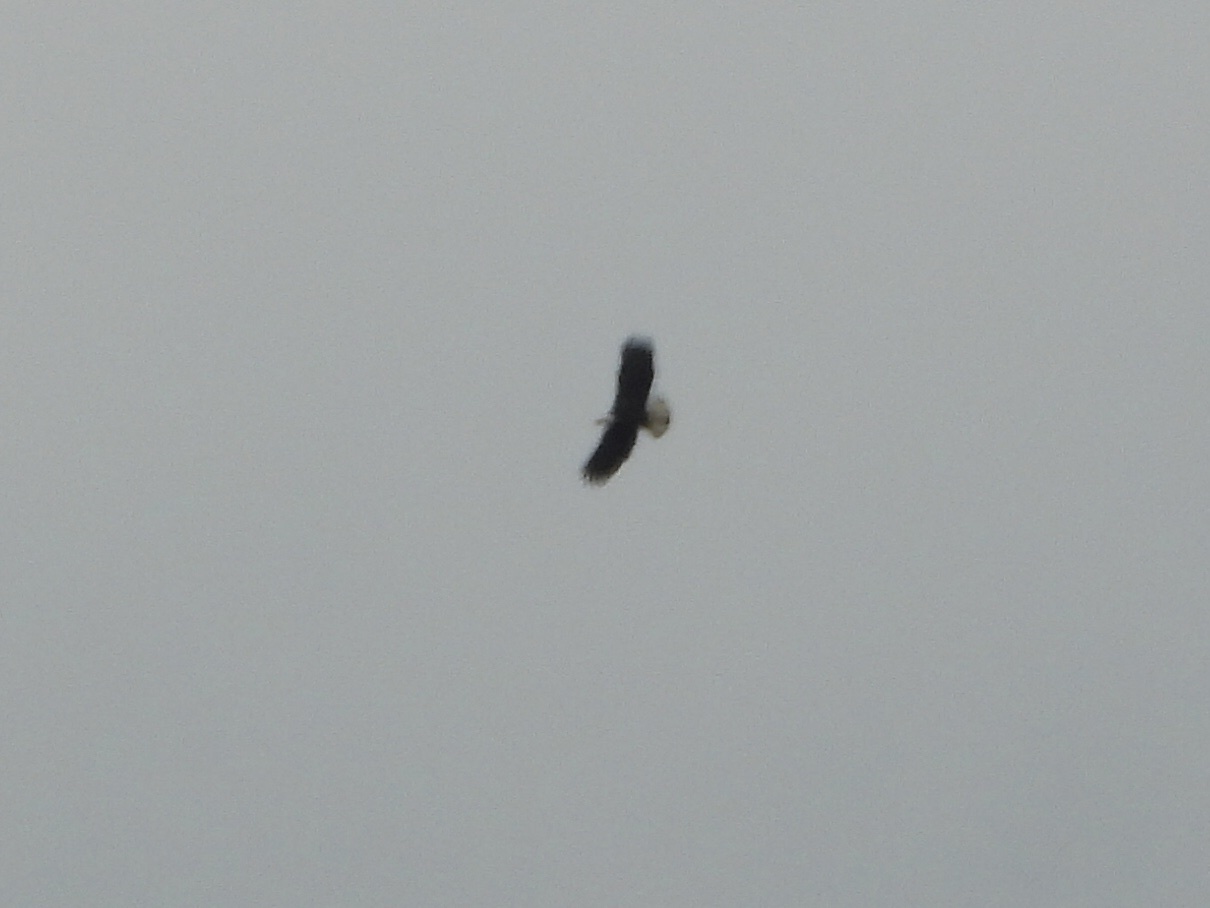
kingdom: Animalia
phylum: Chordata
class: Aves
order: Accipitriformes
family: Accipitridae
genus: Haliaeetus
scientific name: Haliaeetus leucocephalus
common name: Bald eagle
